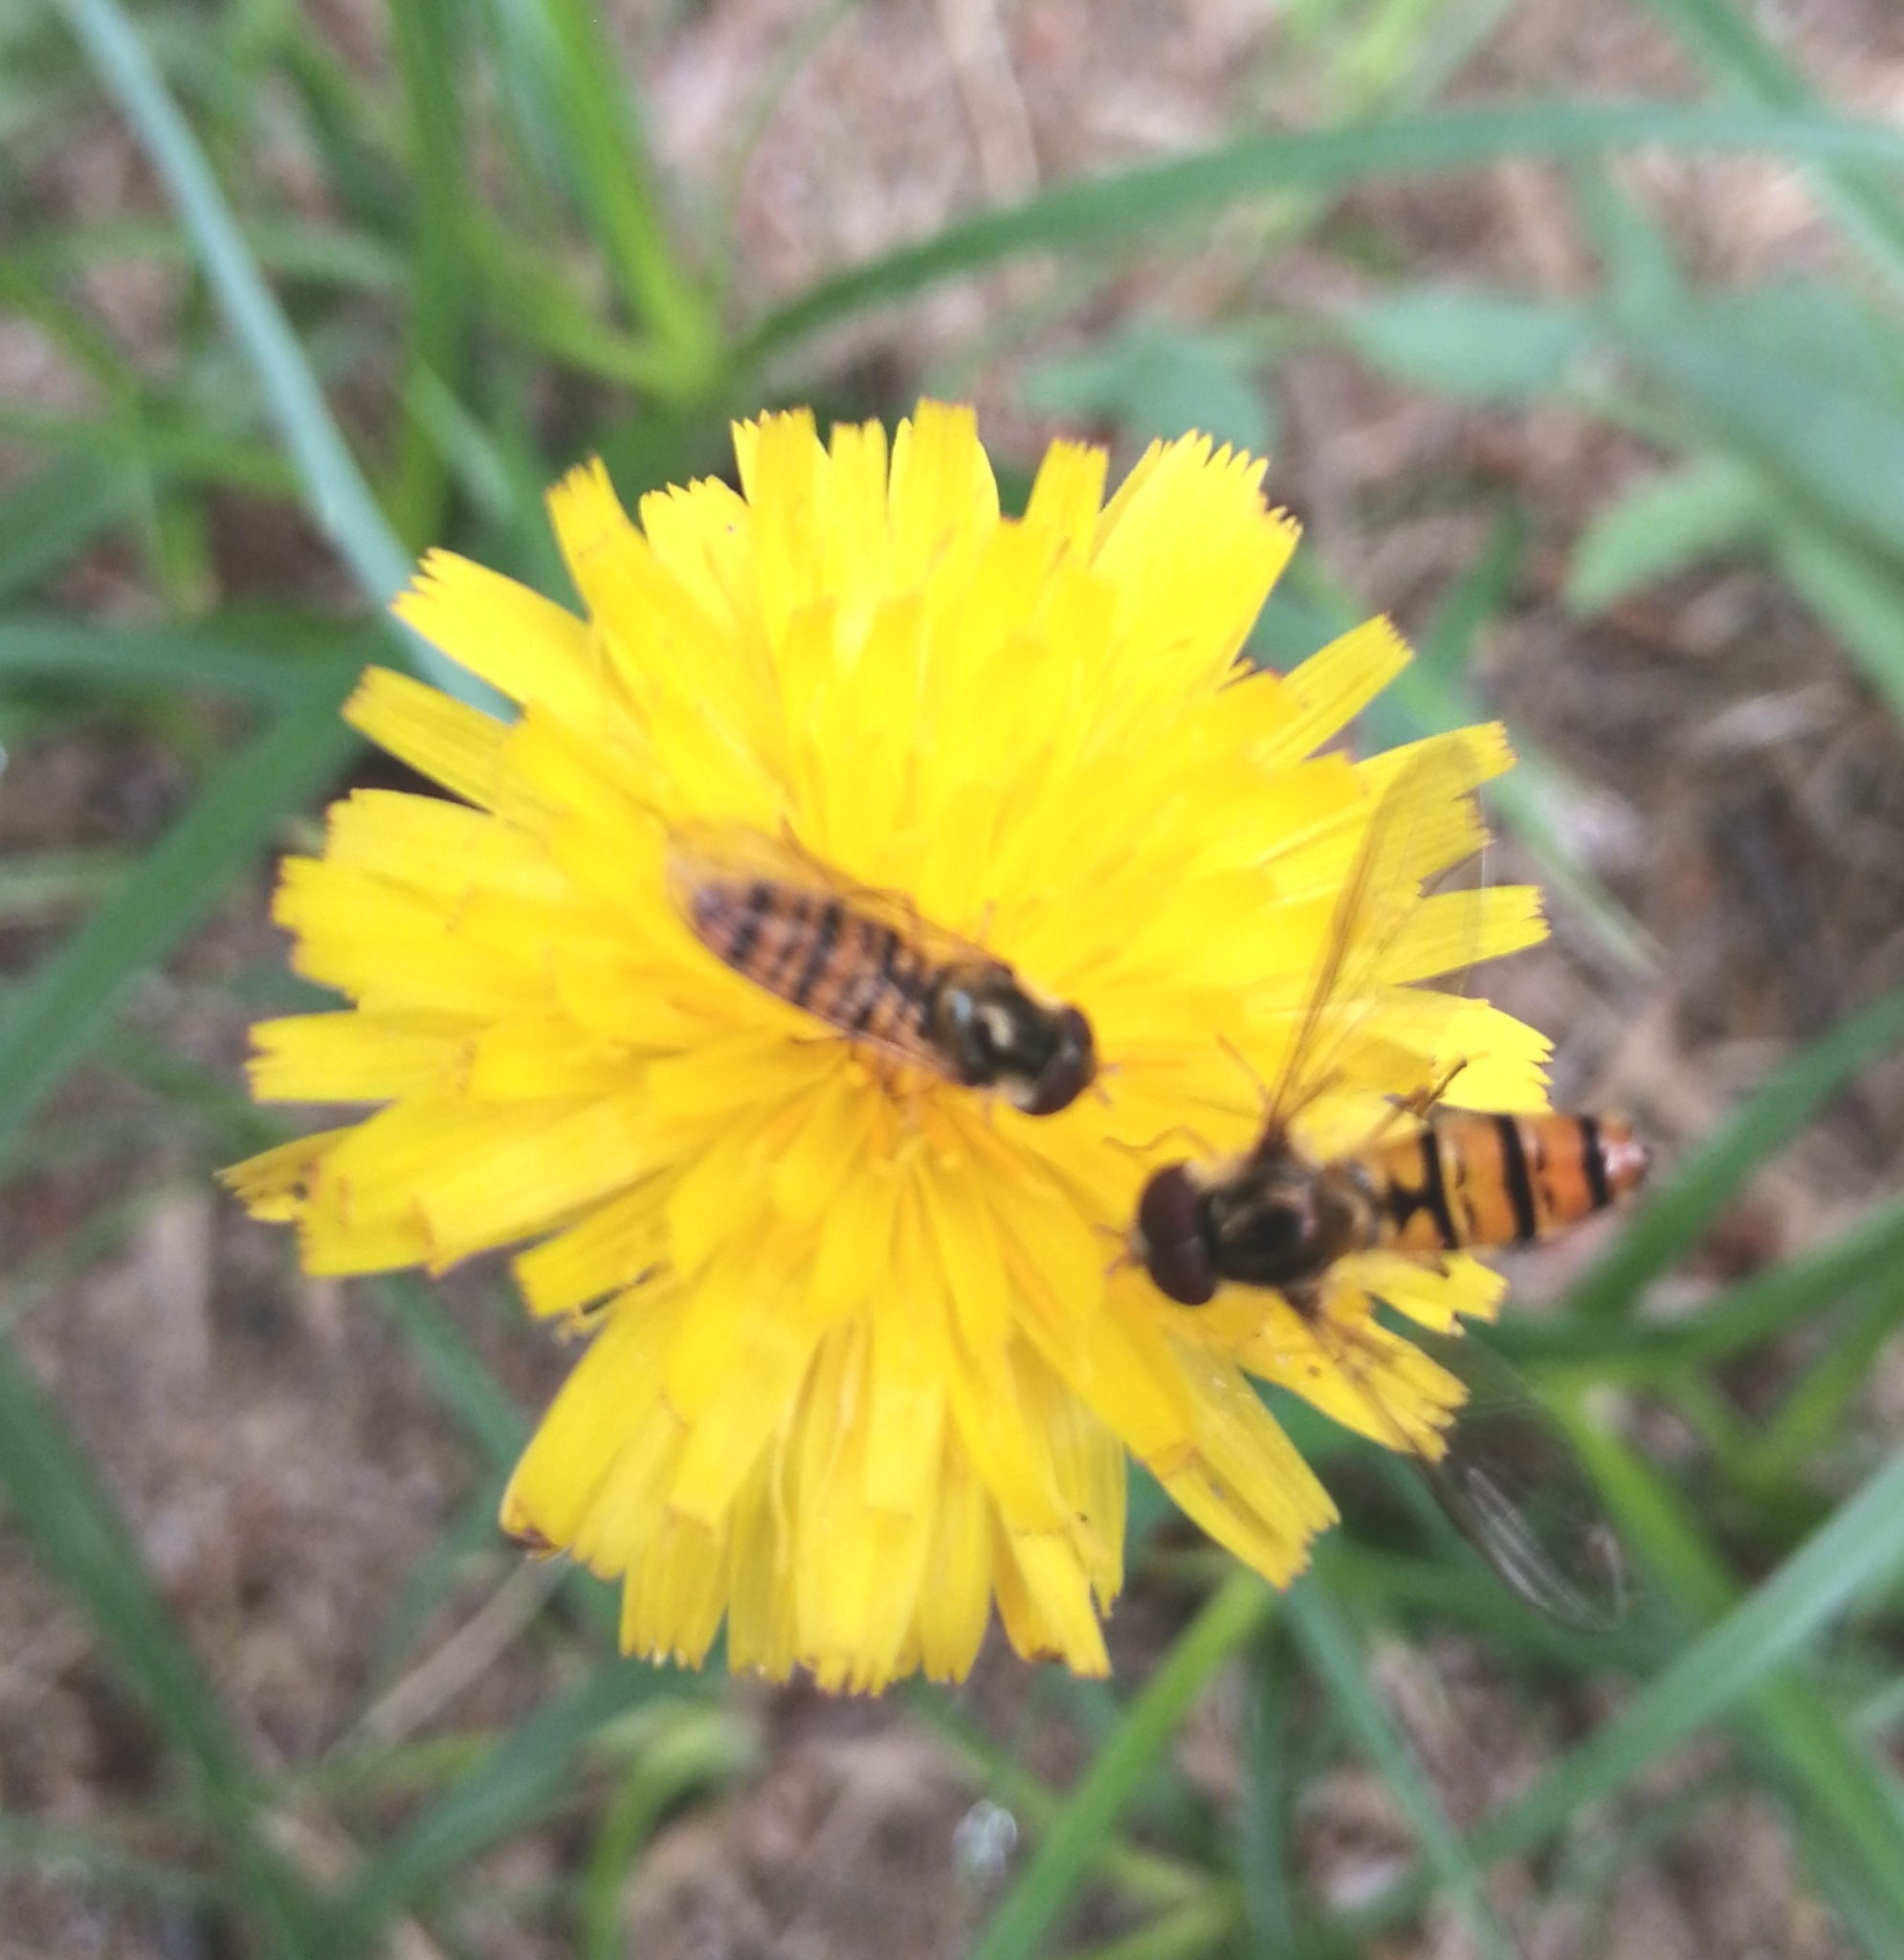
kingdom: Animalia
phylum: Arthropoda
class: Insecta
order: Diptera
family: Syrphidae
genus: Episyrphus
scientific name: Episyrphus balteatus
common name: Marmalade hoverfly
